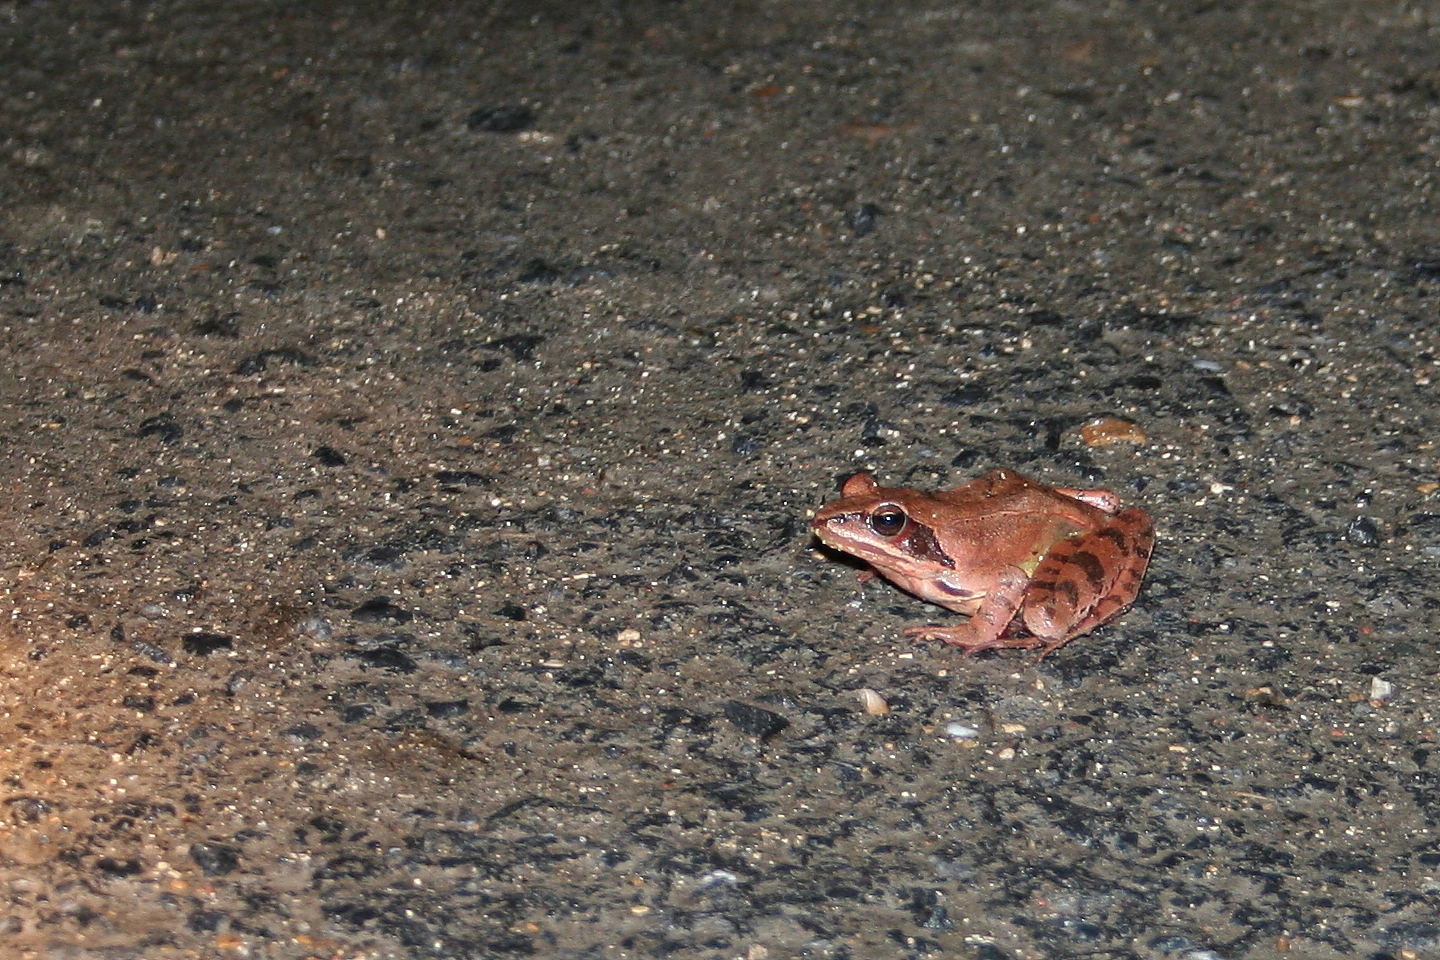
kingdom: Animalia
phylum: Chordata
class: Amphibia
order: Anura
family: Ranidae
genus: Rana
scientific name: Rana dalmatina
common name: Agile frog
